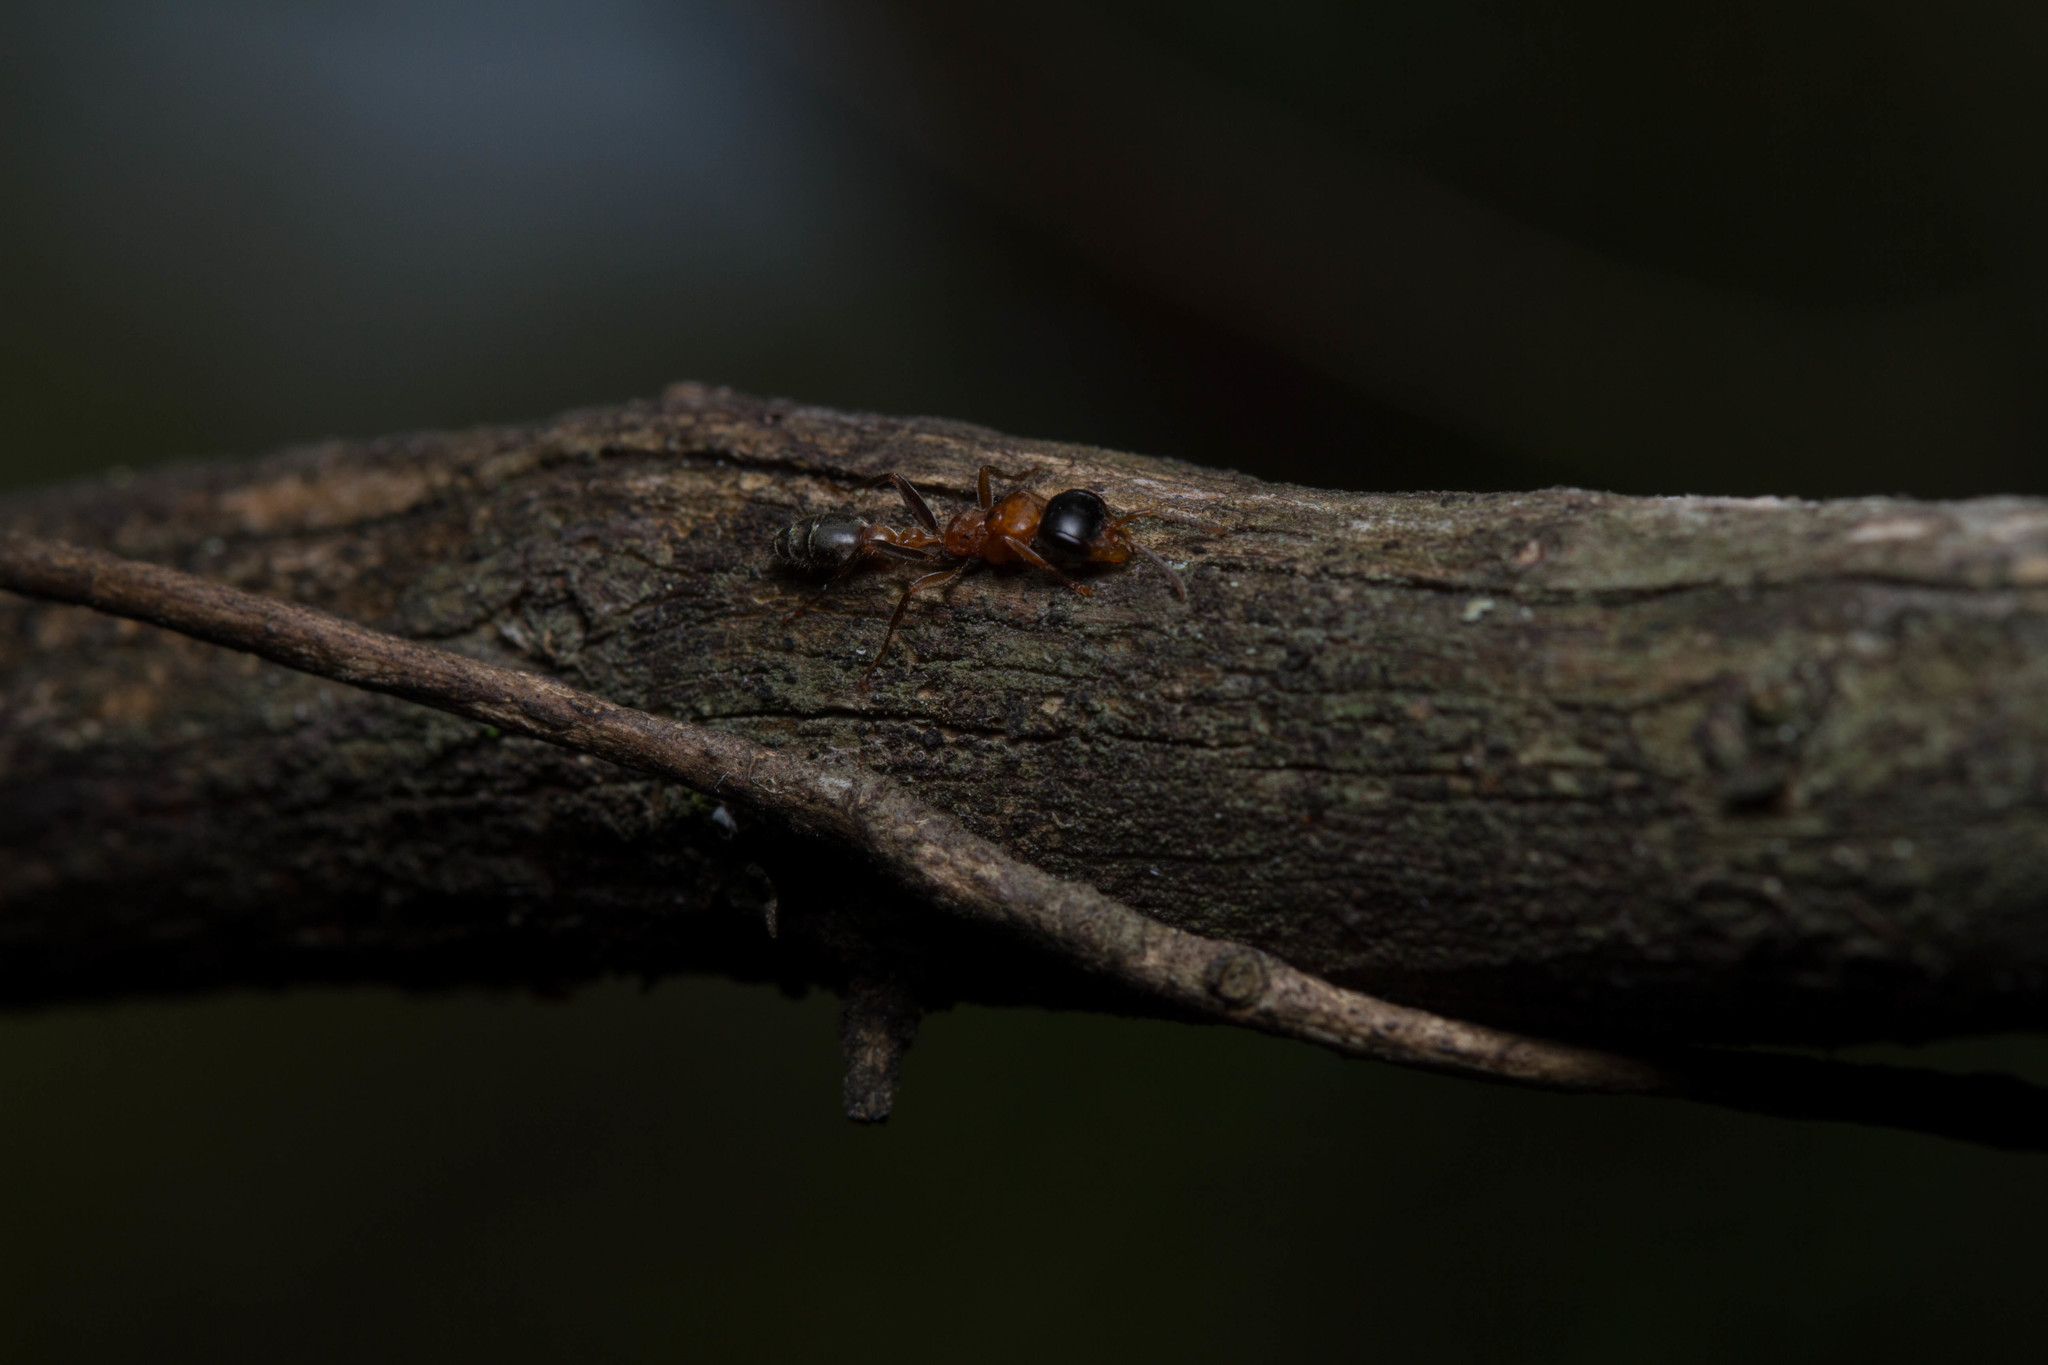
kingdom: Animalia
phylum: Arthropoda
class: Insecta
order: Hymenoptera
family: Formicidae
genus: Pseudomyrmex
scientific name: Pseudomyrmex gracilis
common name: Graceful twig ant
